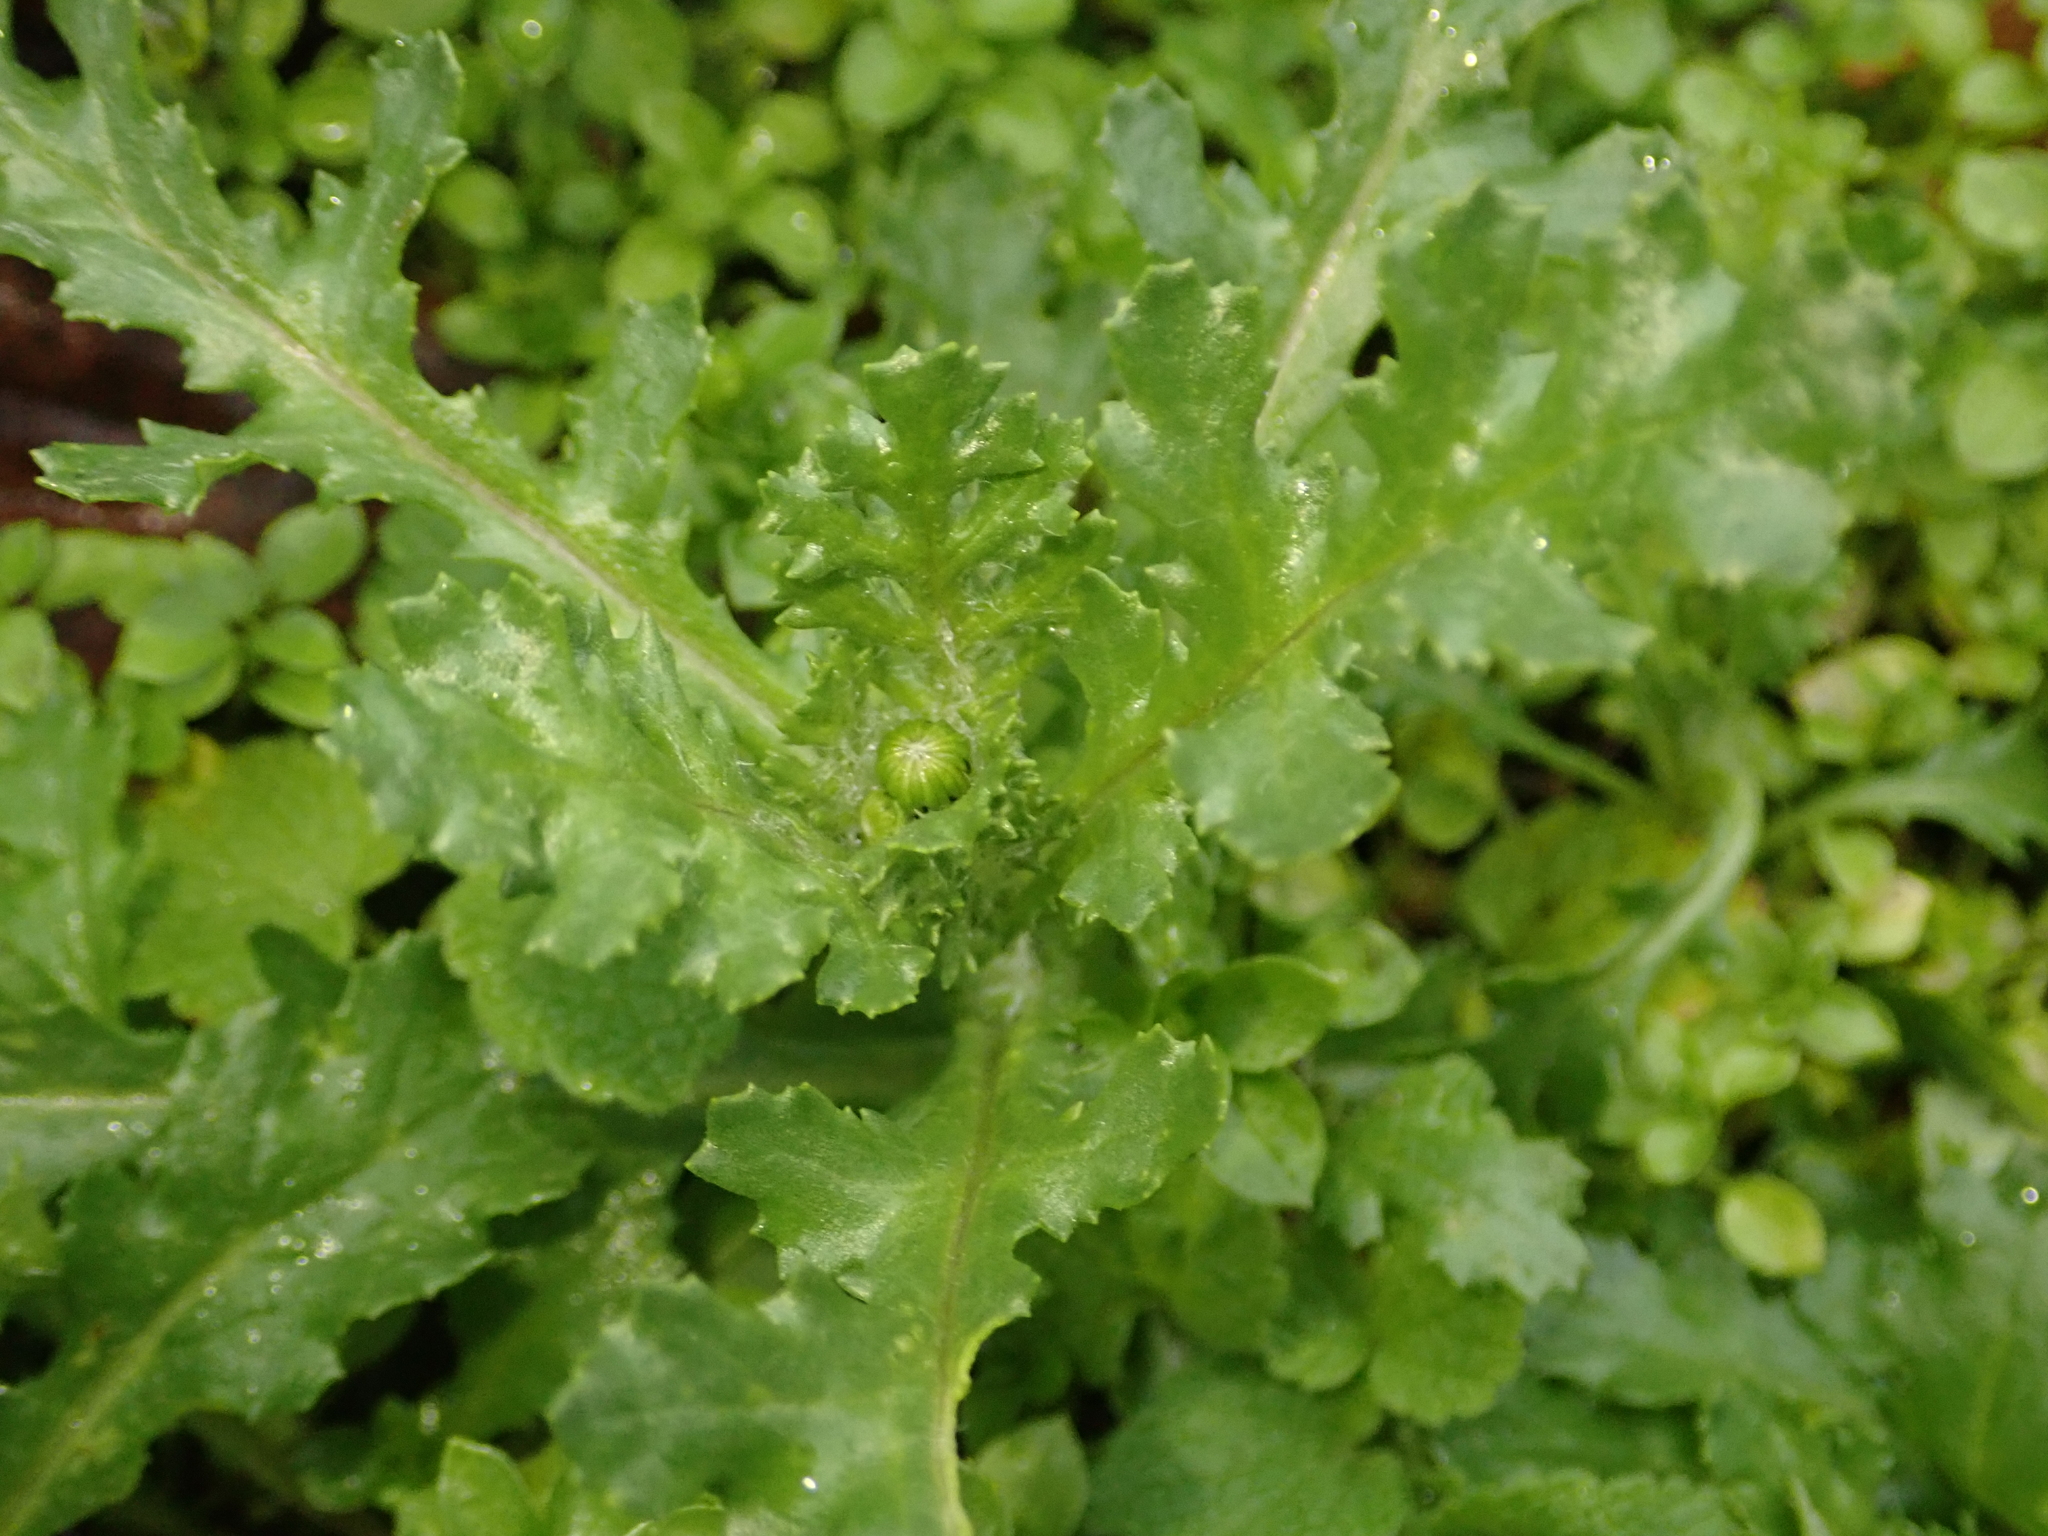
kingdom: Plantae
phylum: Tracheophyta
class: Magnoliopsida
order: Asterales
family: Asteraceae
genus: Senecio
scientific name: Senecio vulgaris
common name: Old-man-in-the-spring
